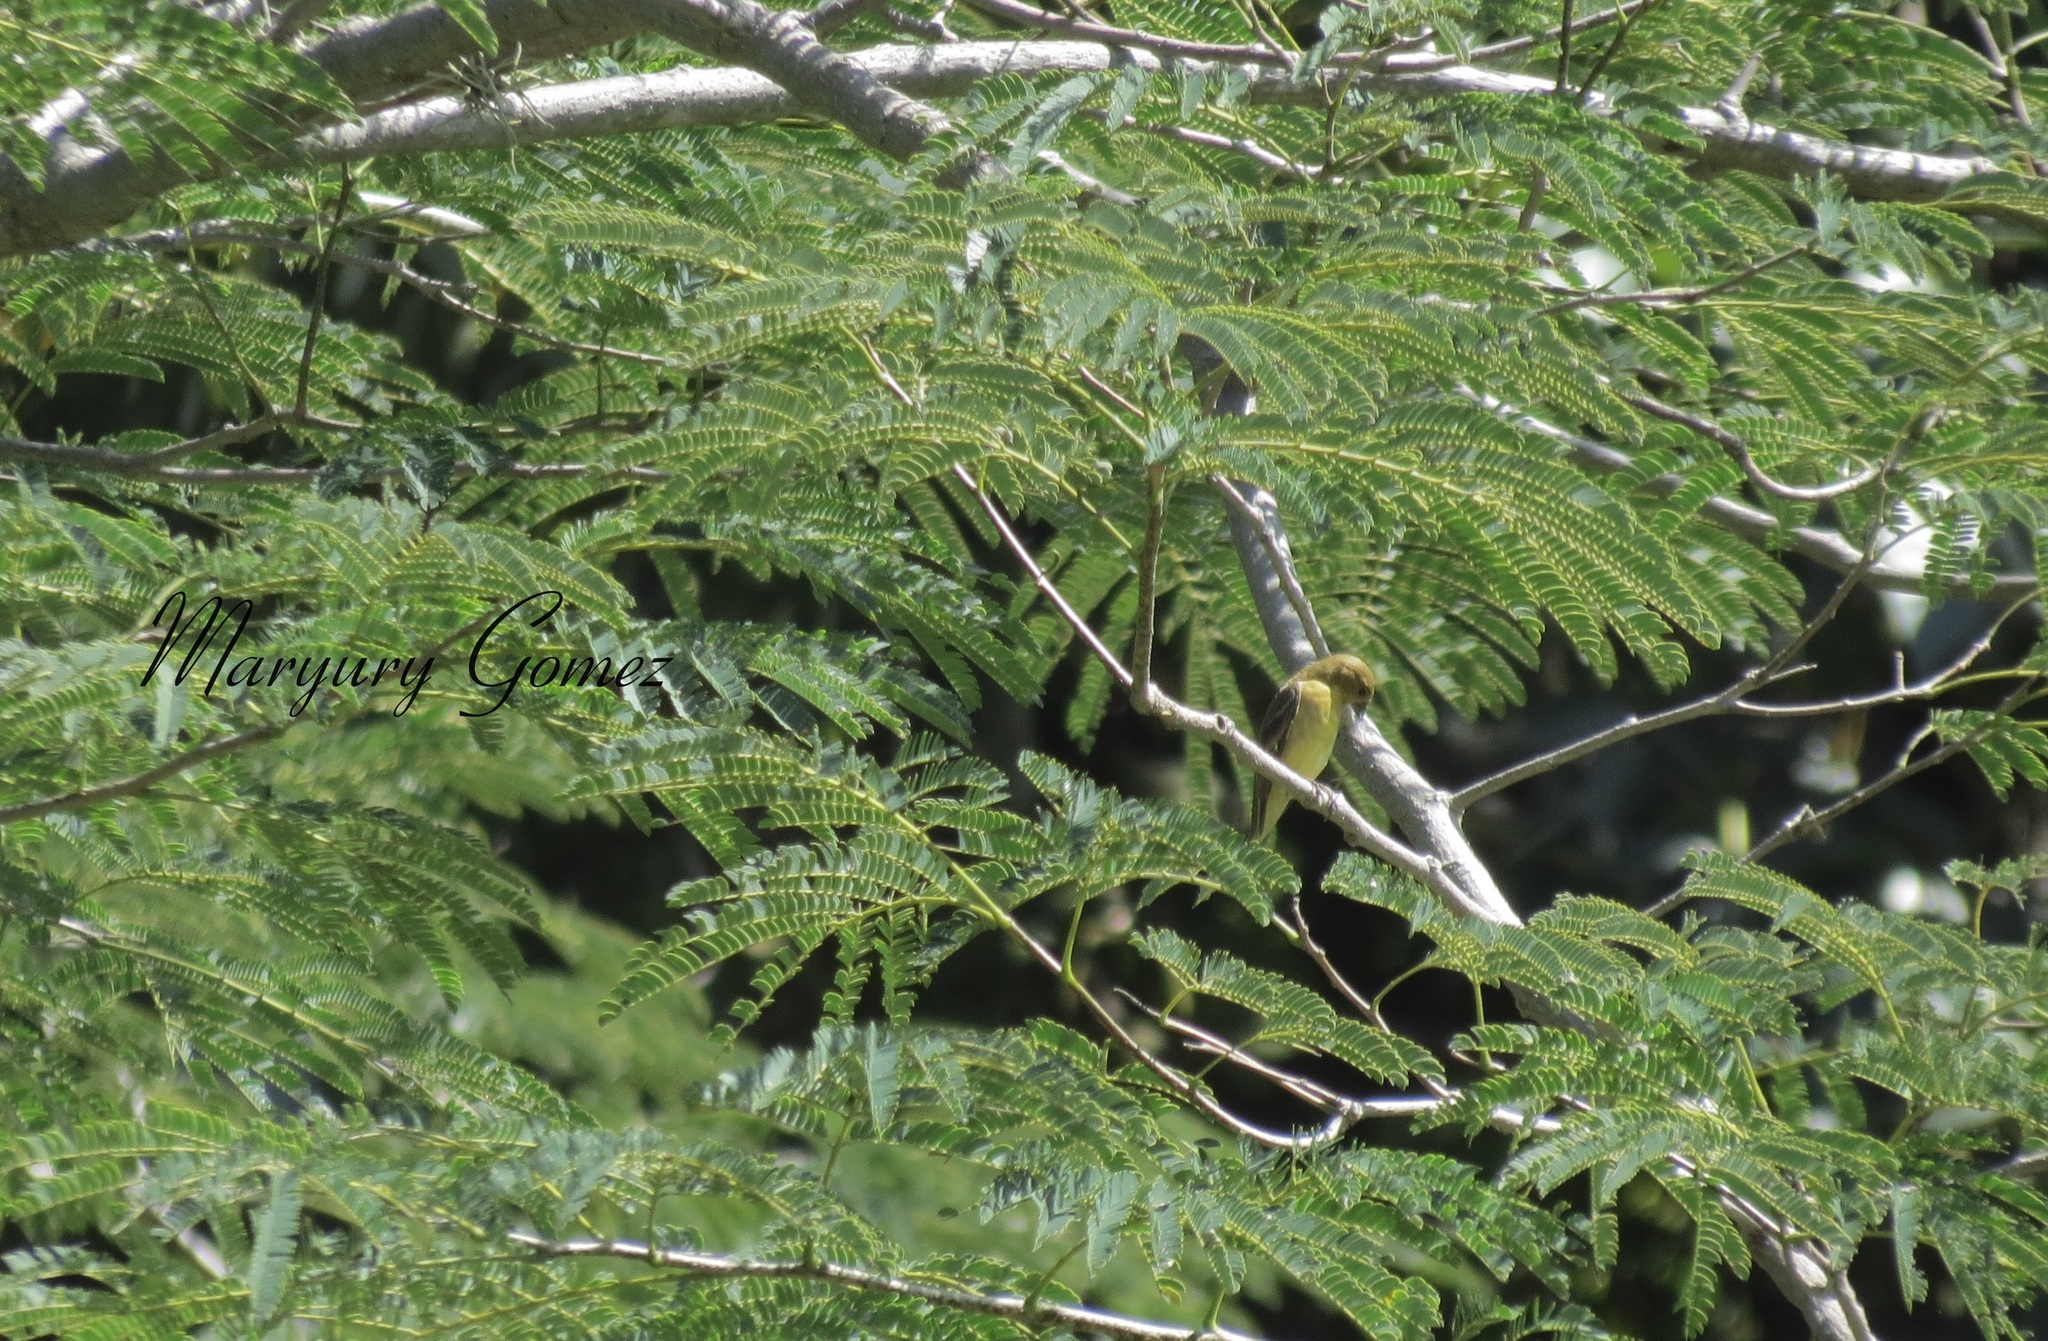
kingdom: Animalia
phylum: Chordata
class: Aves
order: Passeriformes
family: Fringillidae
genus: Spinus
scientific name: Spinus psaltria
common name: Lesser goldfinch
